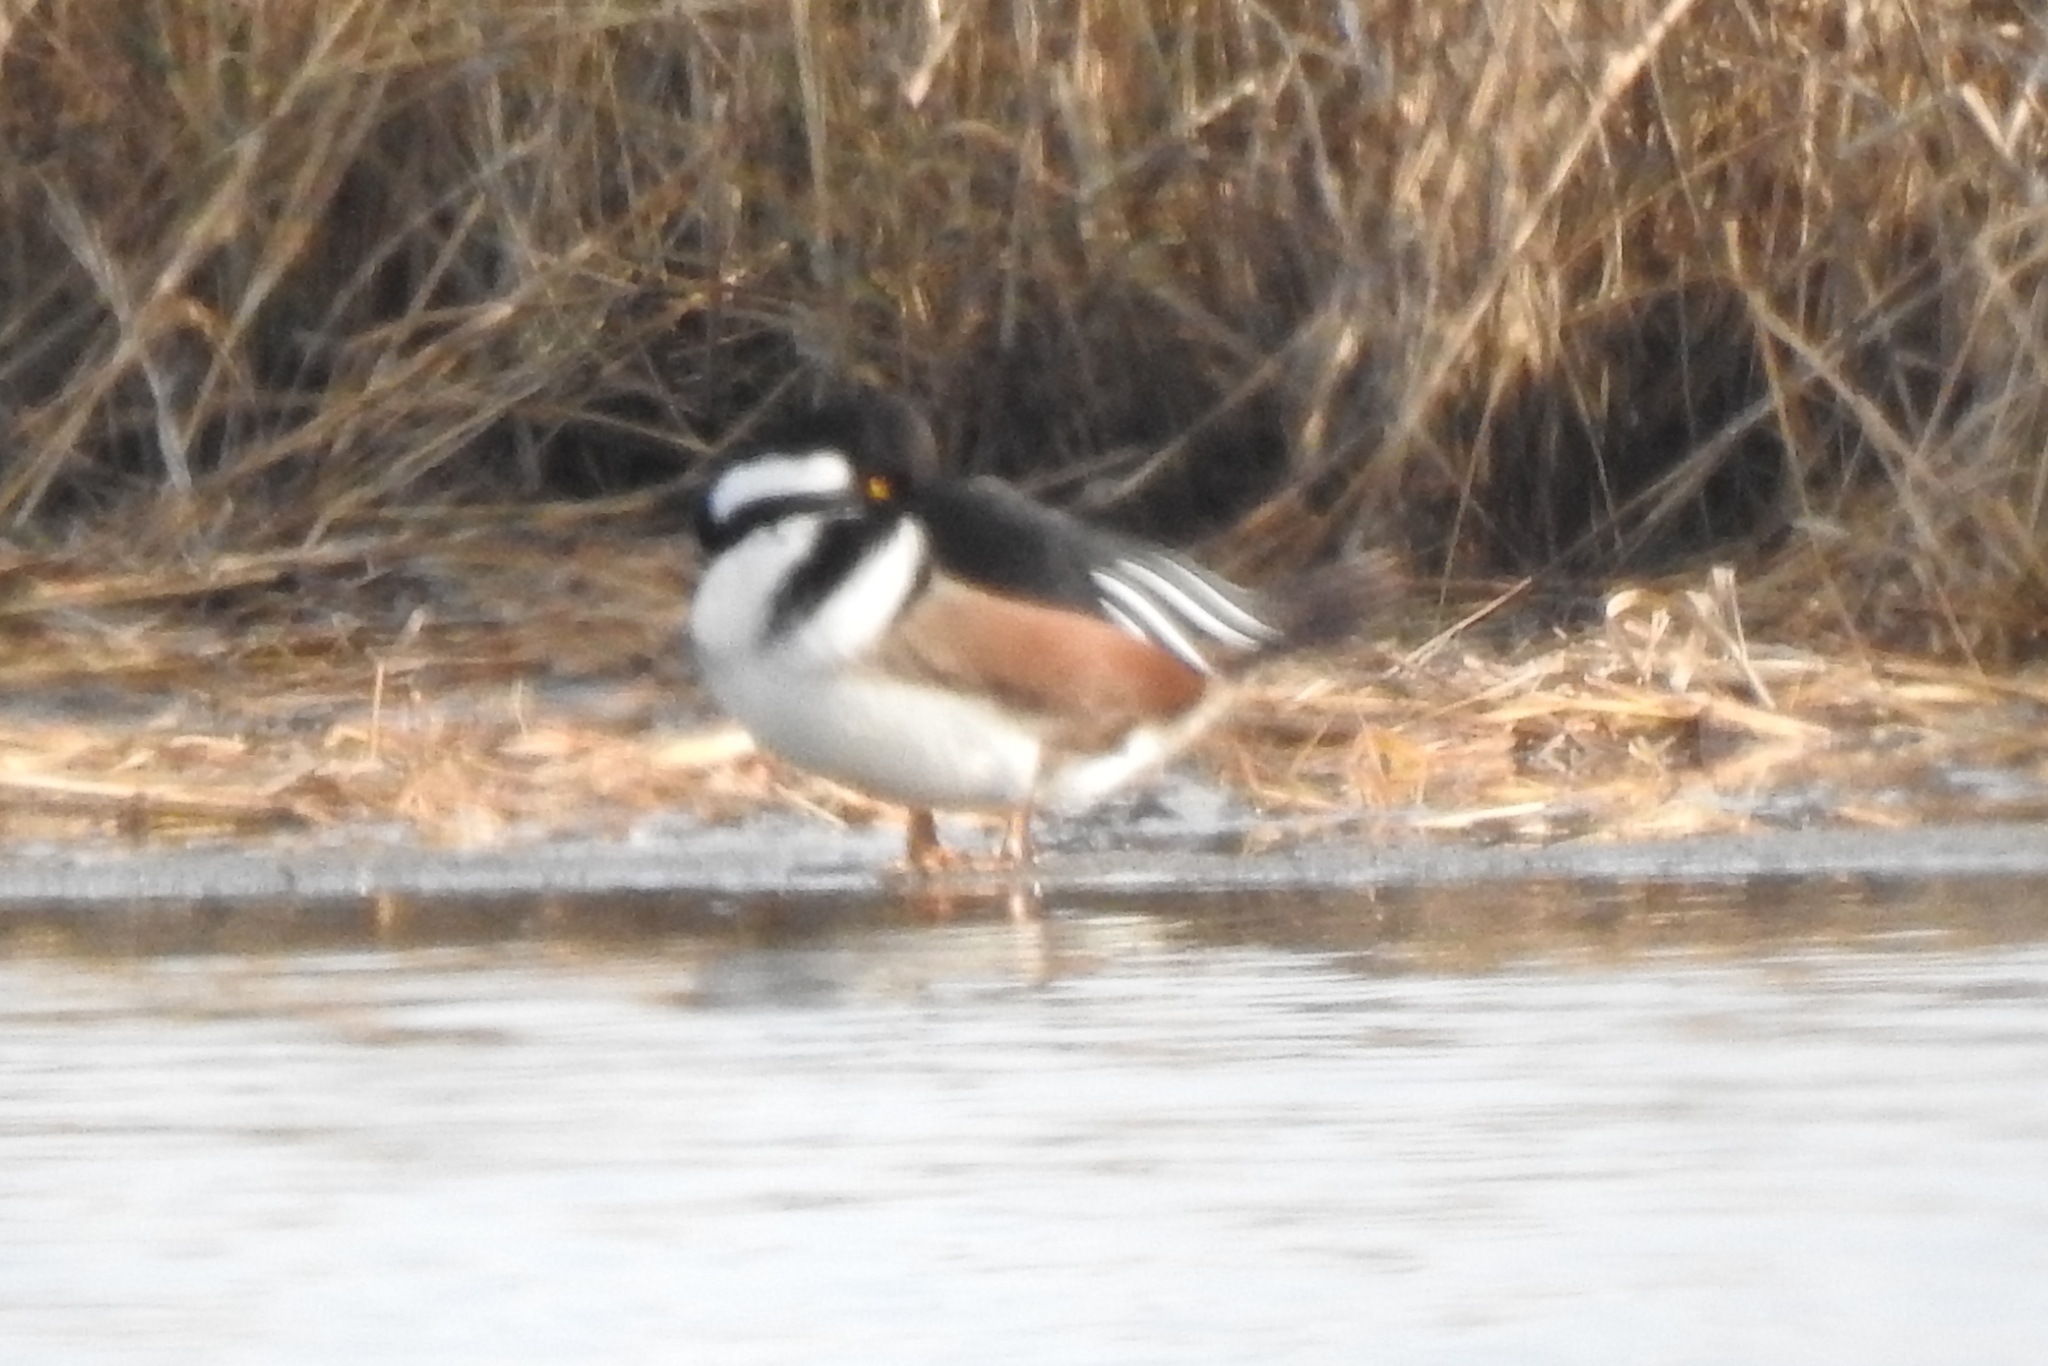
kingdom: Animalia
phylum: Chordata
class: Aves
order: Anseriformes
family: Anatidae
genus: Lophodytes
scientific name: Lophodytes cucullatus
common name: Hooded merganser
